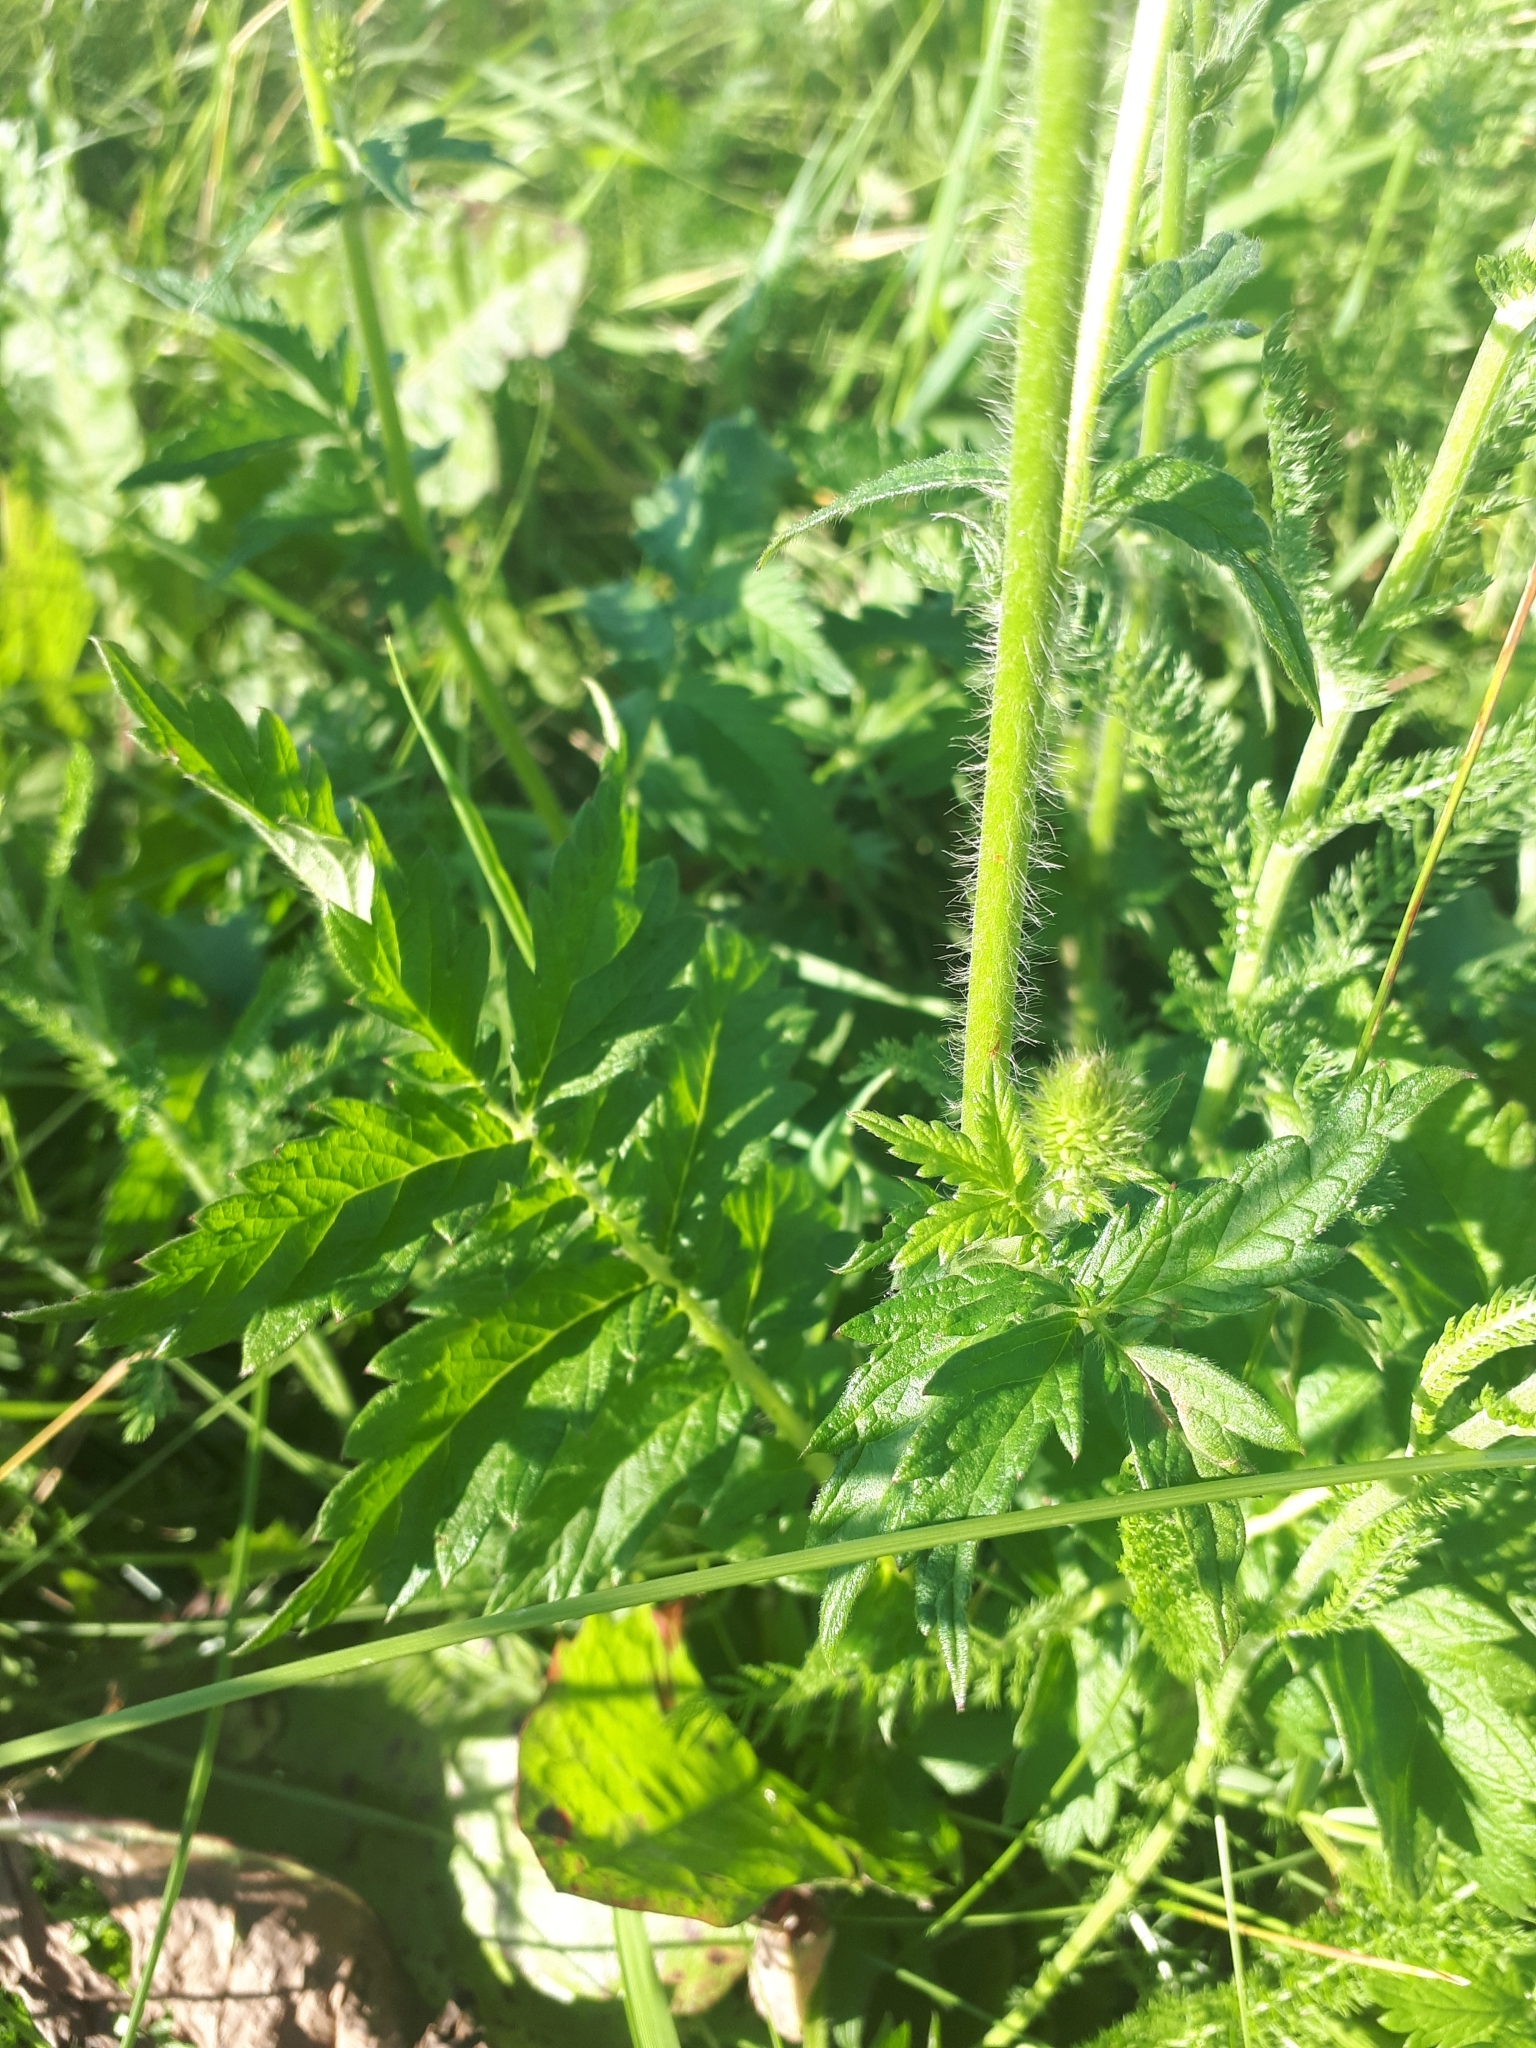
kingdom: Plantae
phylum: Tracheophyta
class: Magnoliopsida
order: Rosales
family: Rosaceae
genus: Agrimonia
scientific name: Agrimonia eupatoria
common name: Agrimony
